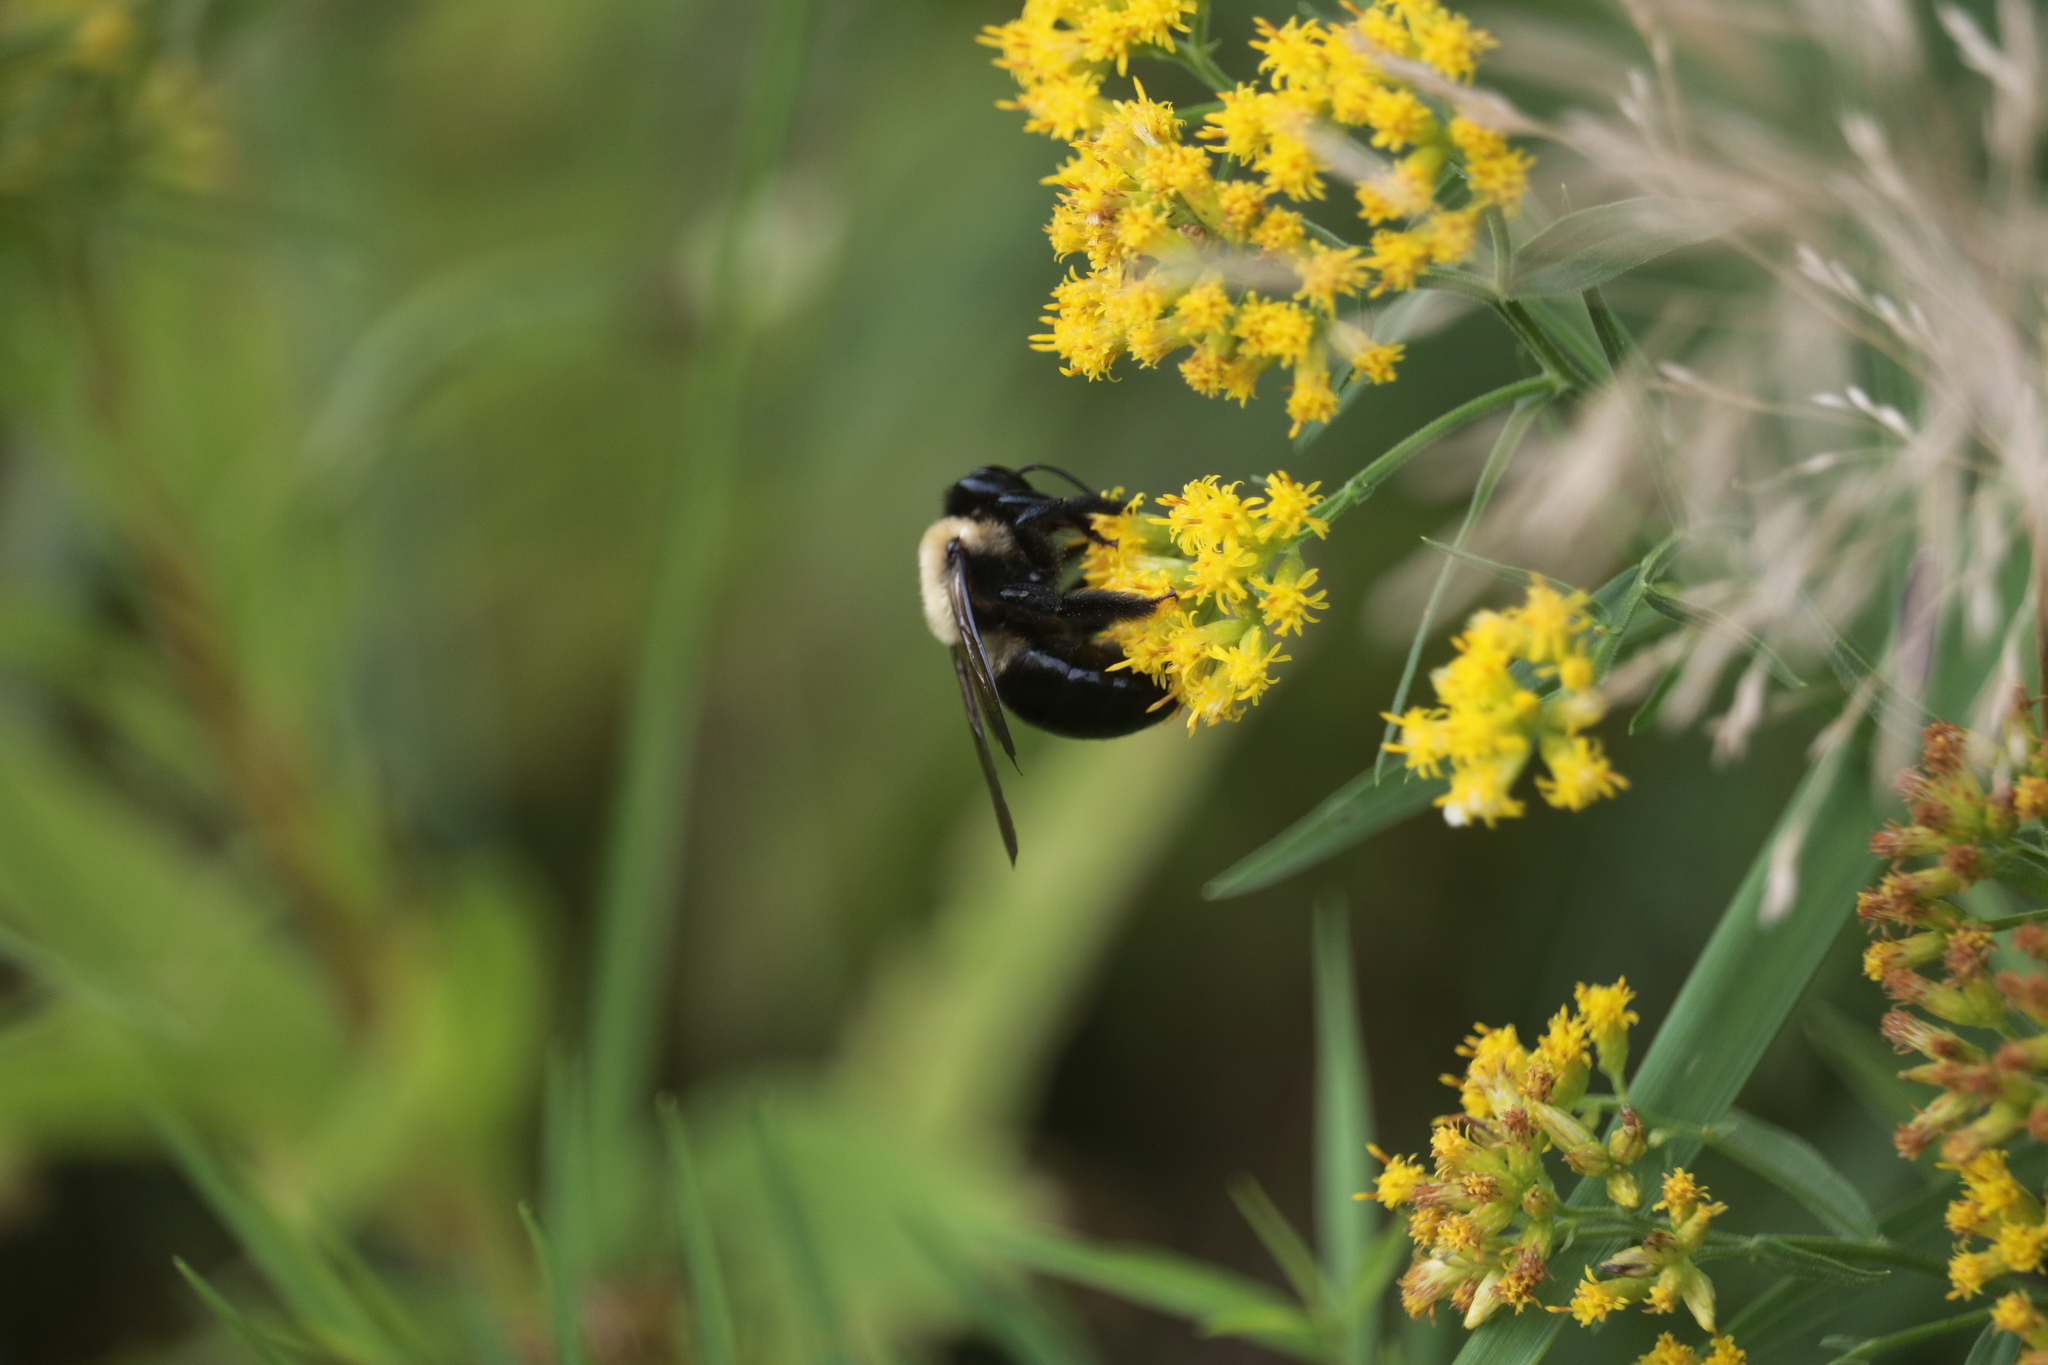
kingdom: Animalia
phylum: Arthropoda
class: Insecta
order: Hymenoptera
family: Apidae
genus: Xylocopa
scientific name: Xylocopa virginica
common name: Carpenter bee
